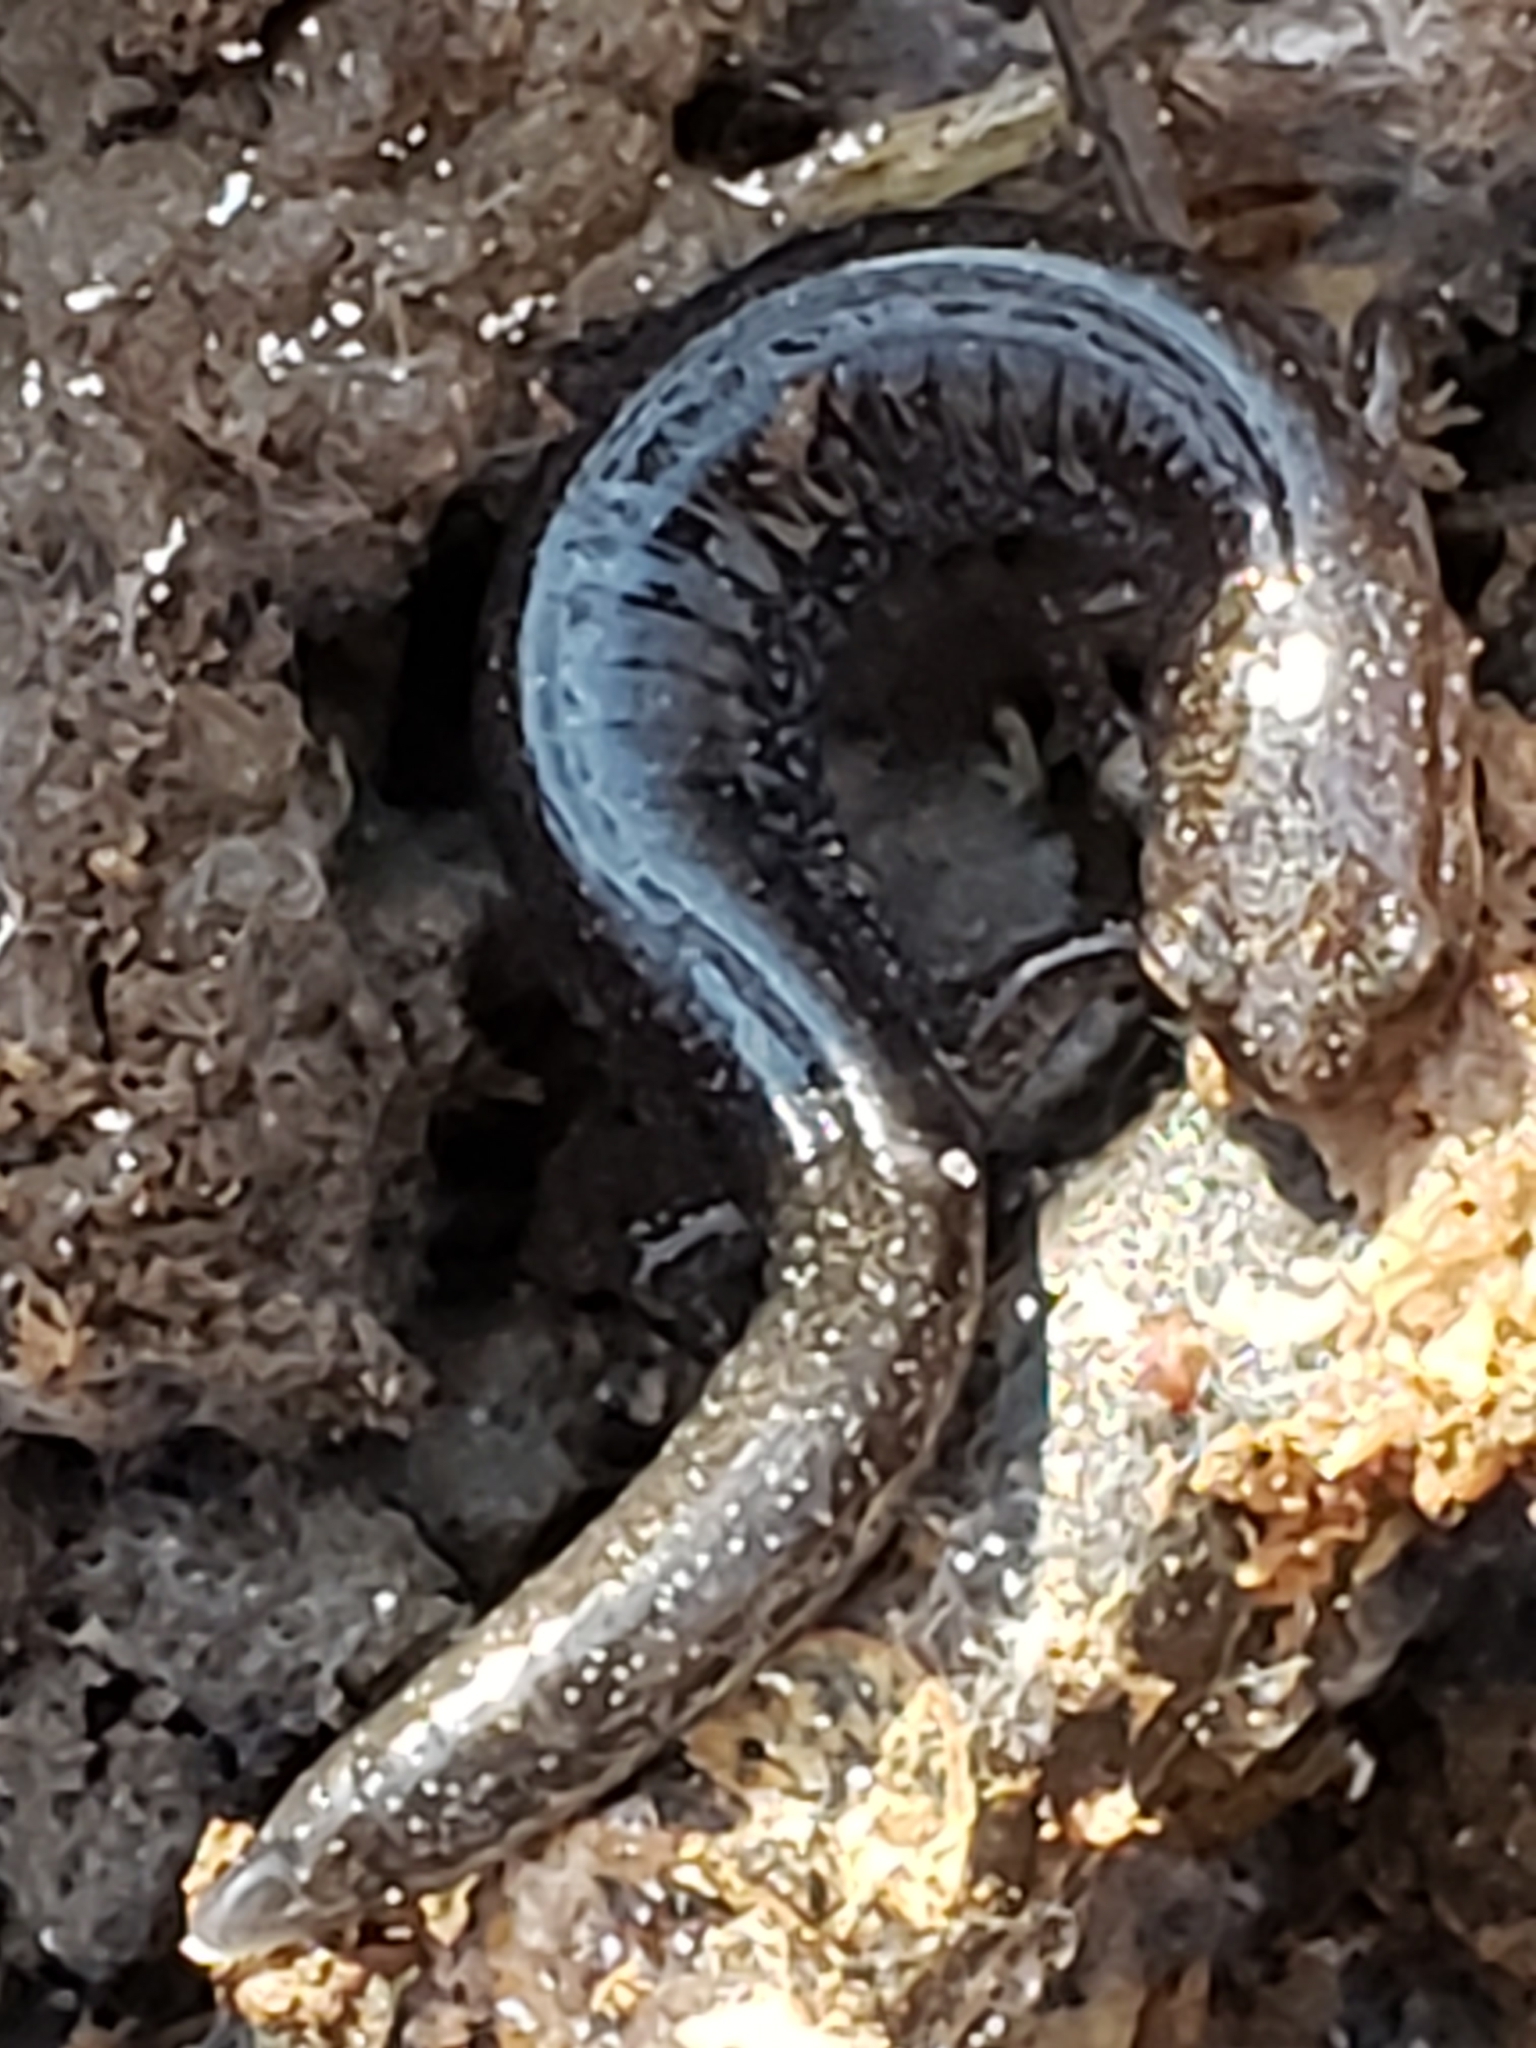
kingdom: Animalia
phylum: Chordata
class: Amphibia
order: Caudata
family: Plethodontidae
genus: Plethodon
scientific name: Plethodon cinereus
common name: Redback salamander
